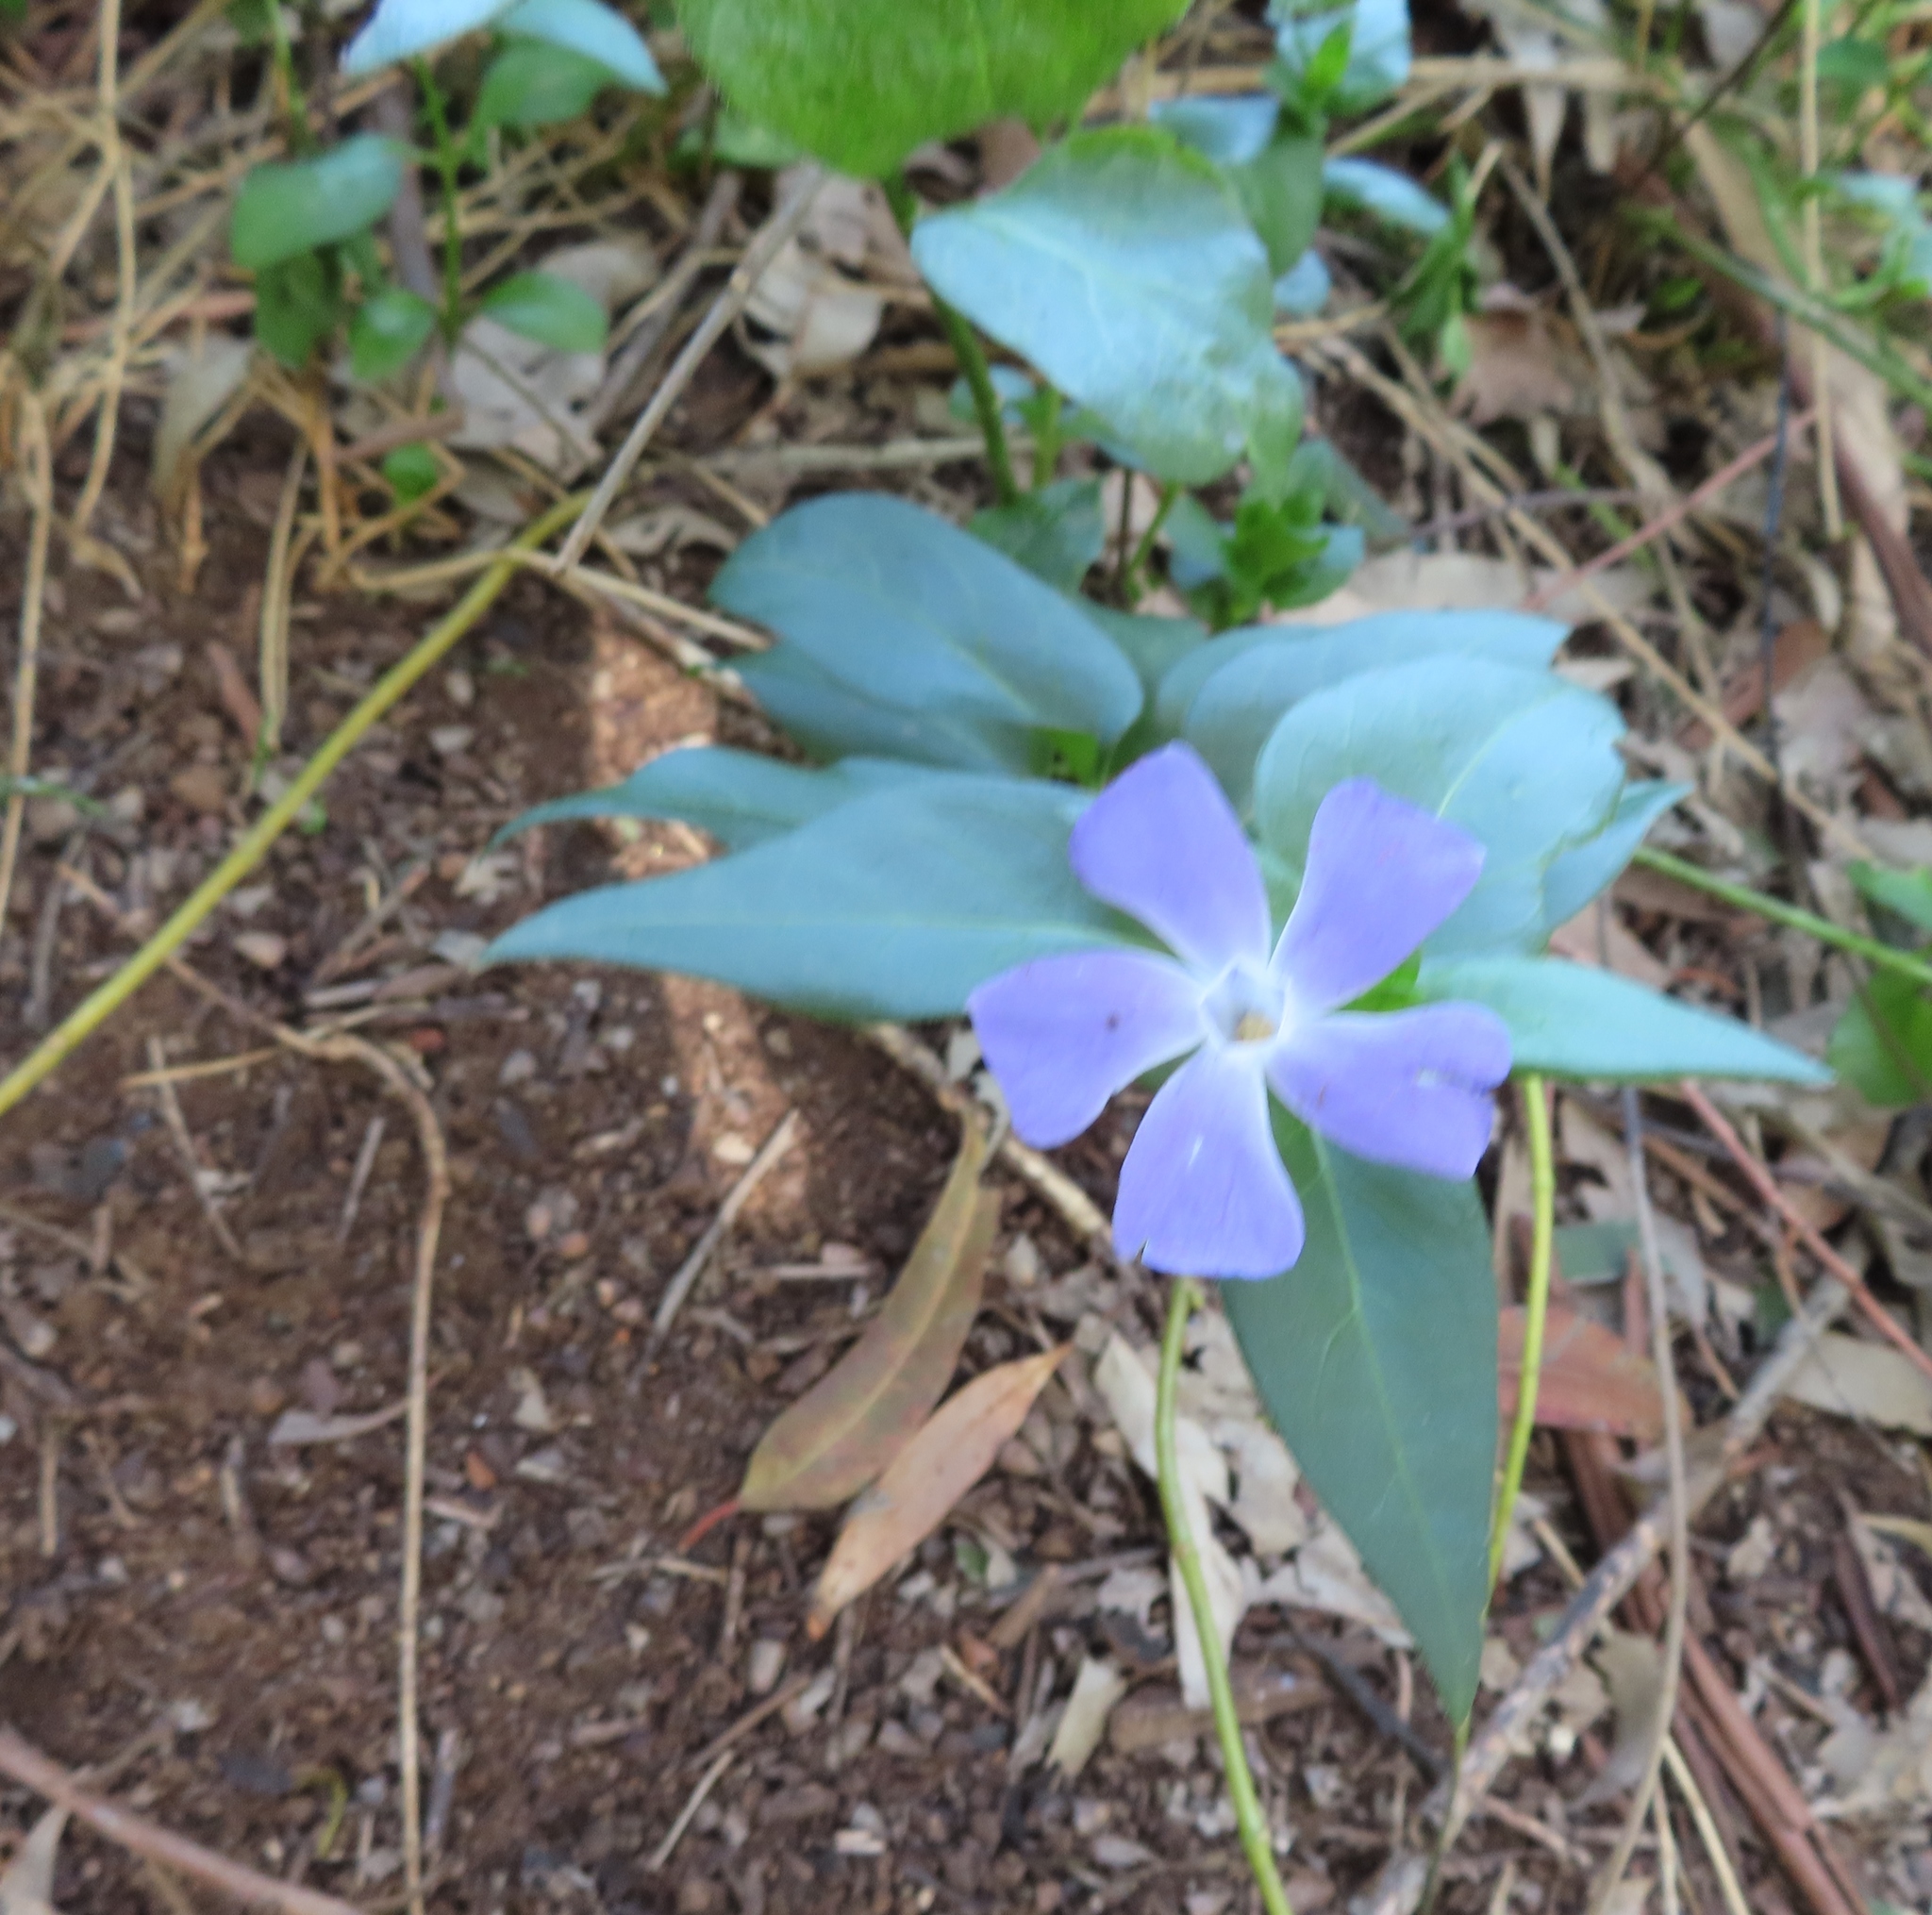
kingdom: Plantae
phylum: Tracheophyta
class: Magnoliopsida
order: Gentianales
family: Apocynaceae
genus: Vinca
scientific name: Vinca major
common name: Greater periwinkle
